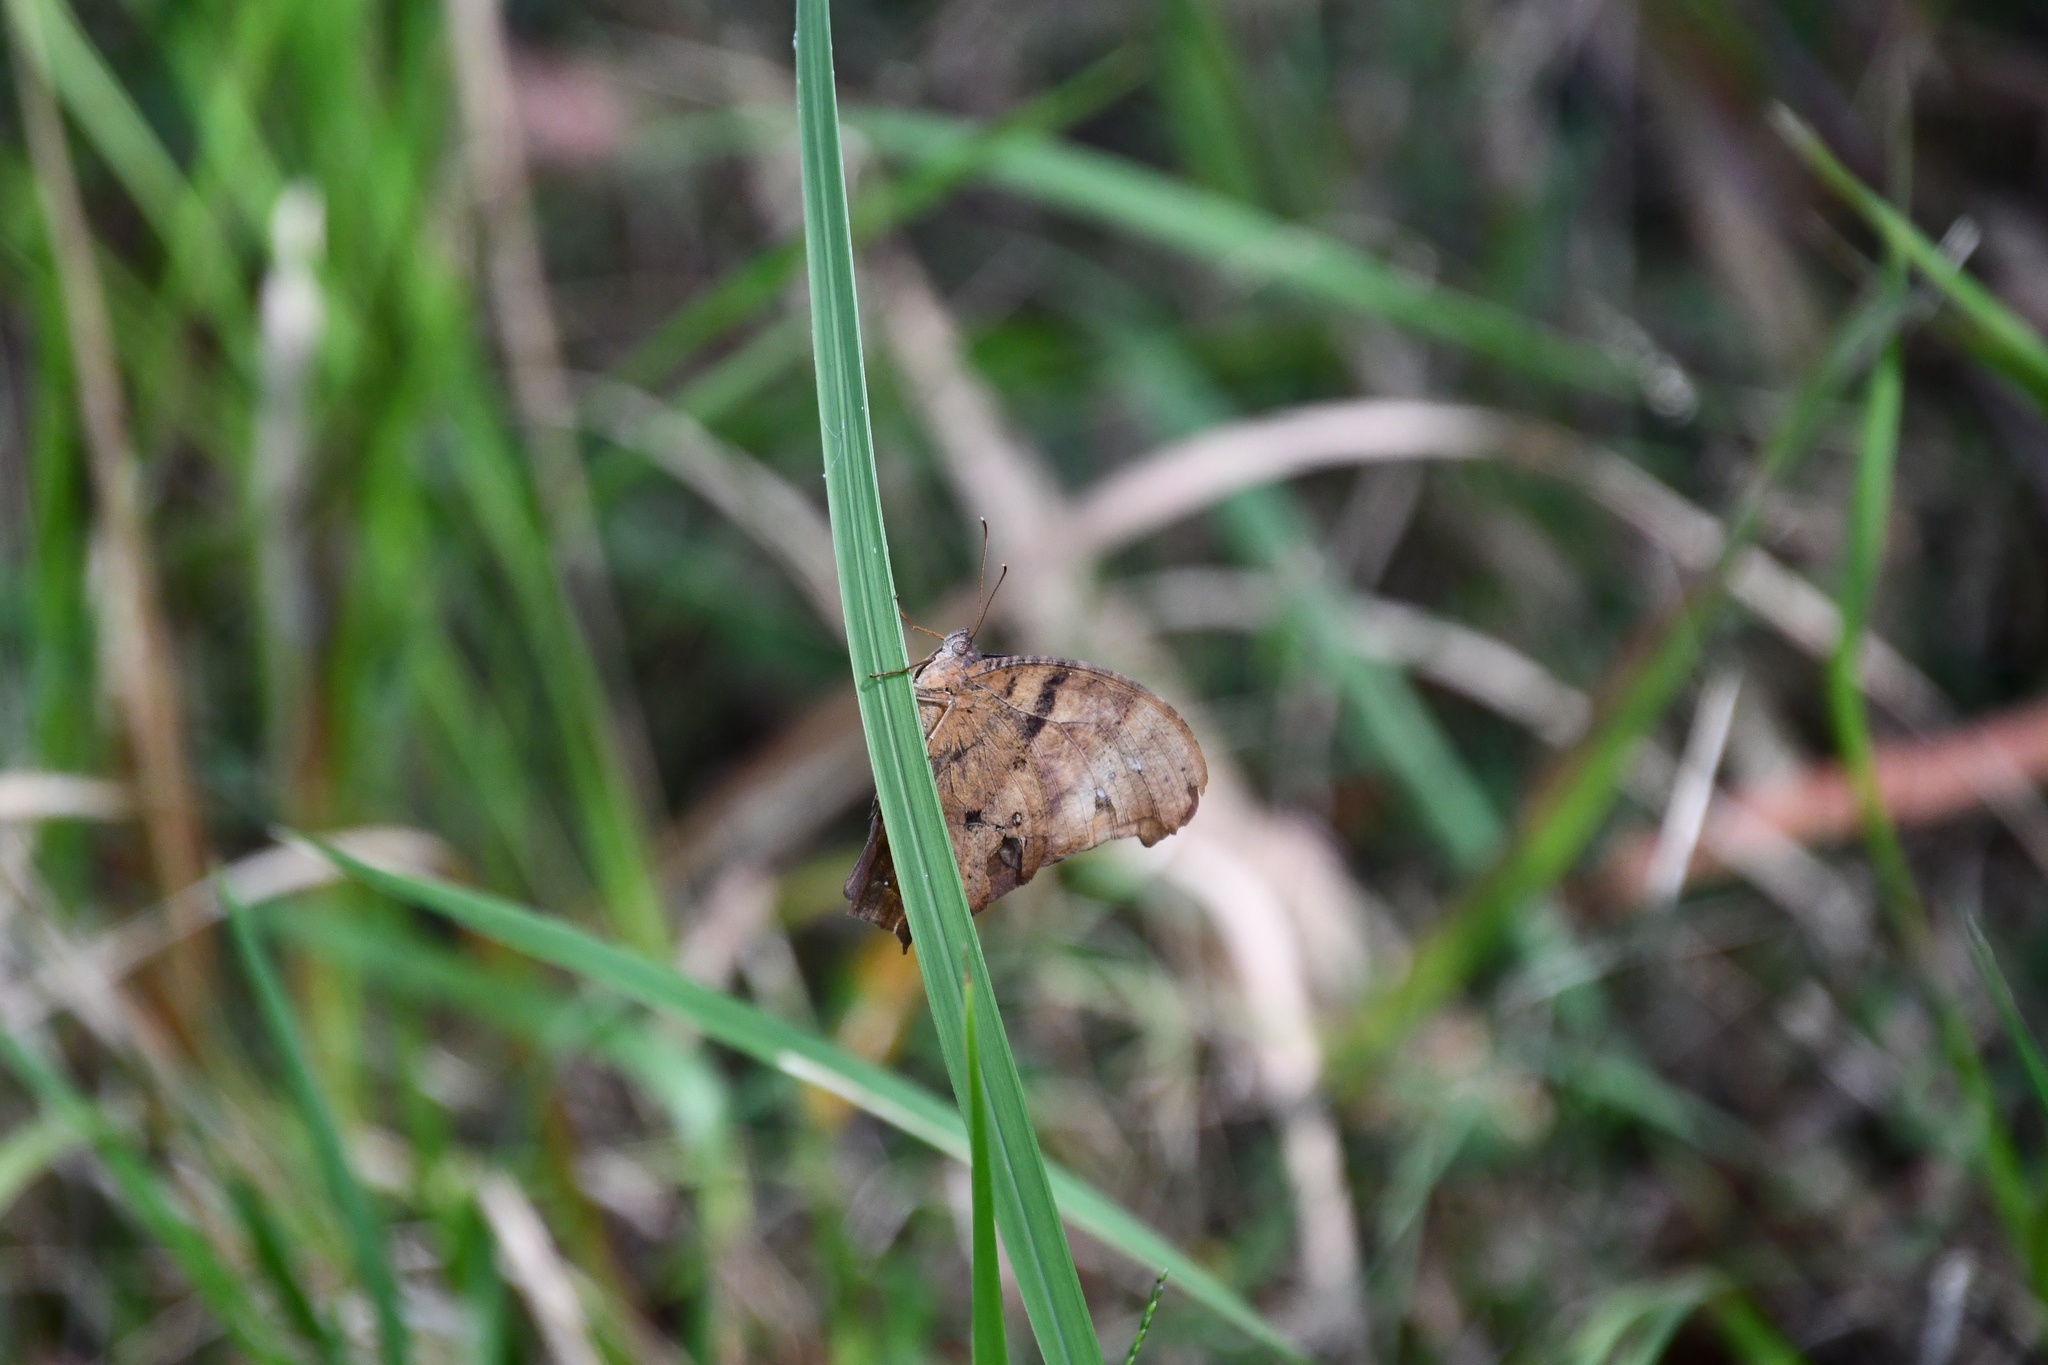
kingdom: Animalia
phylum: Arthropoda
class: Insecta
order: Lepidoptera
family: Nymphalidae
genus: Melanitis
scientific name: Melanitis leda
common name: Twilight brown
